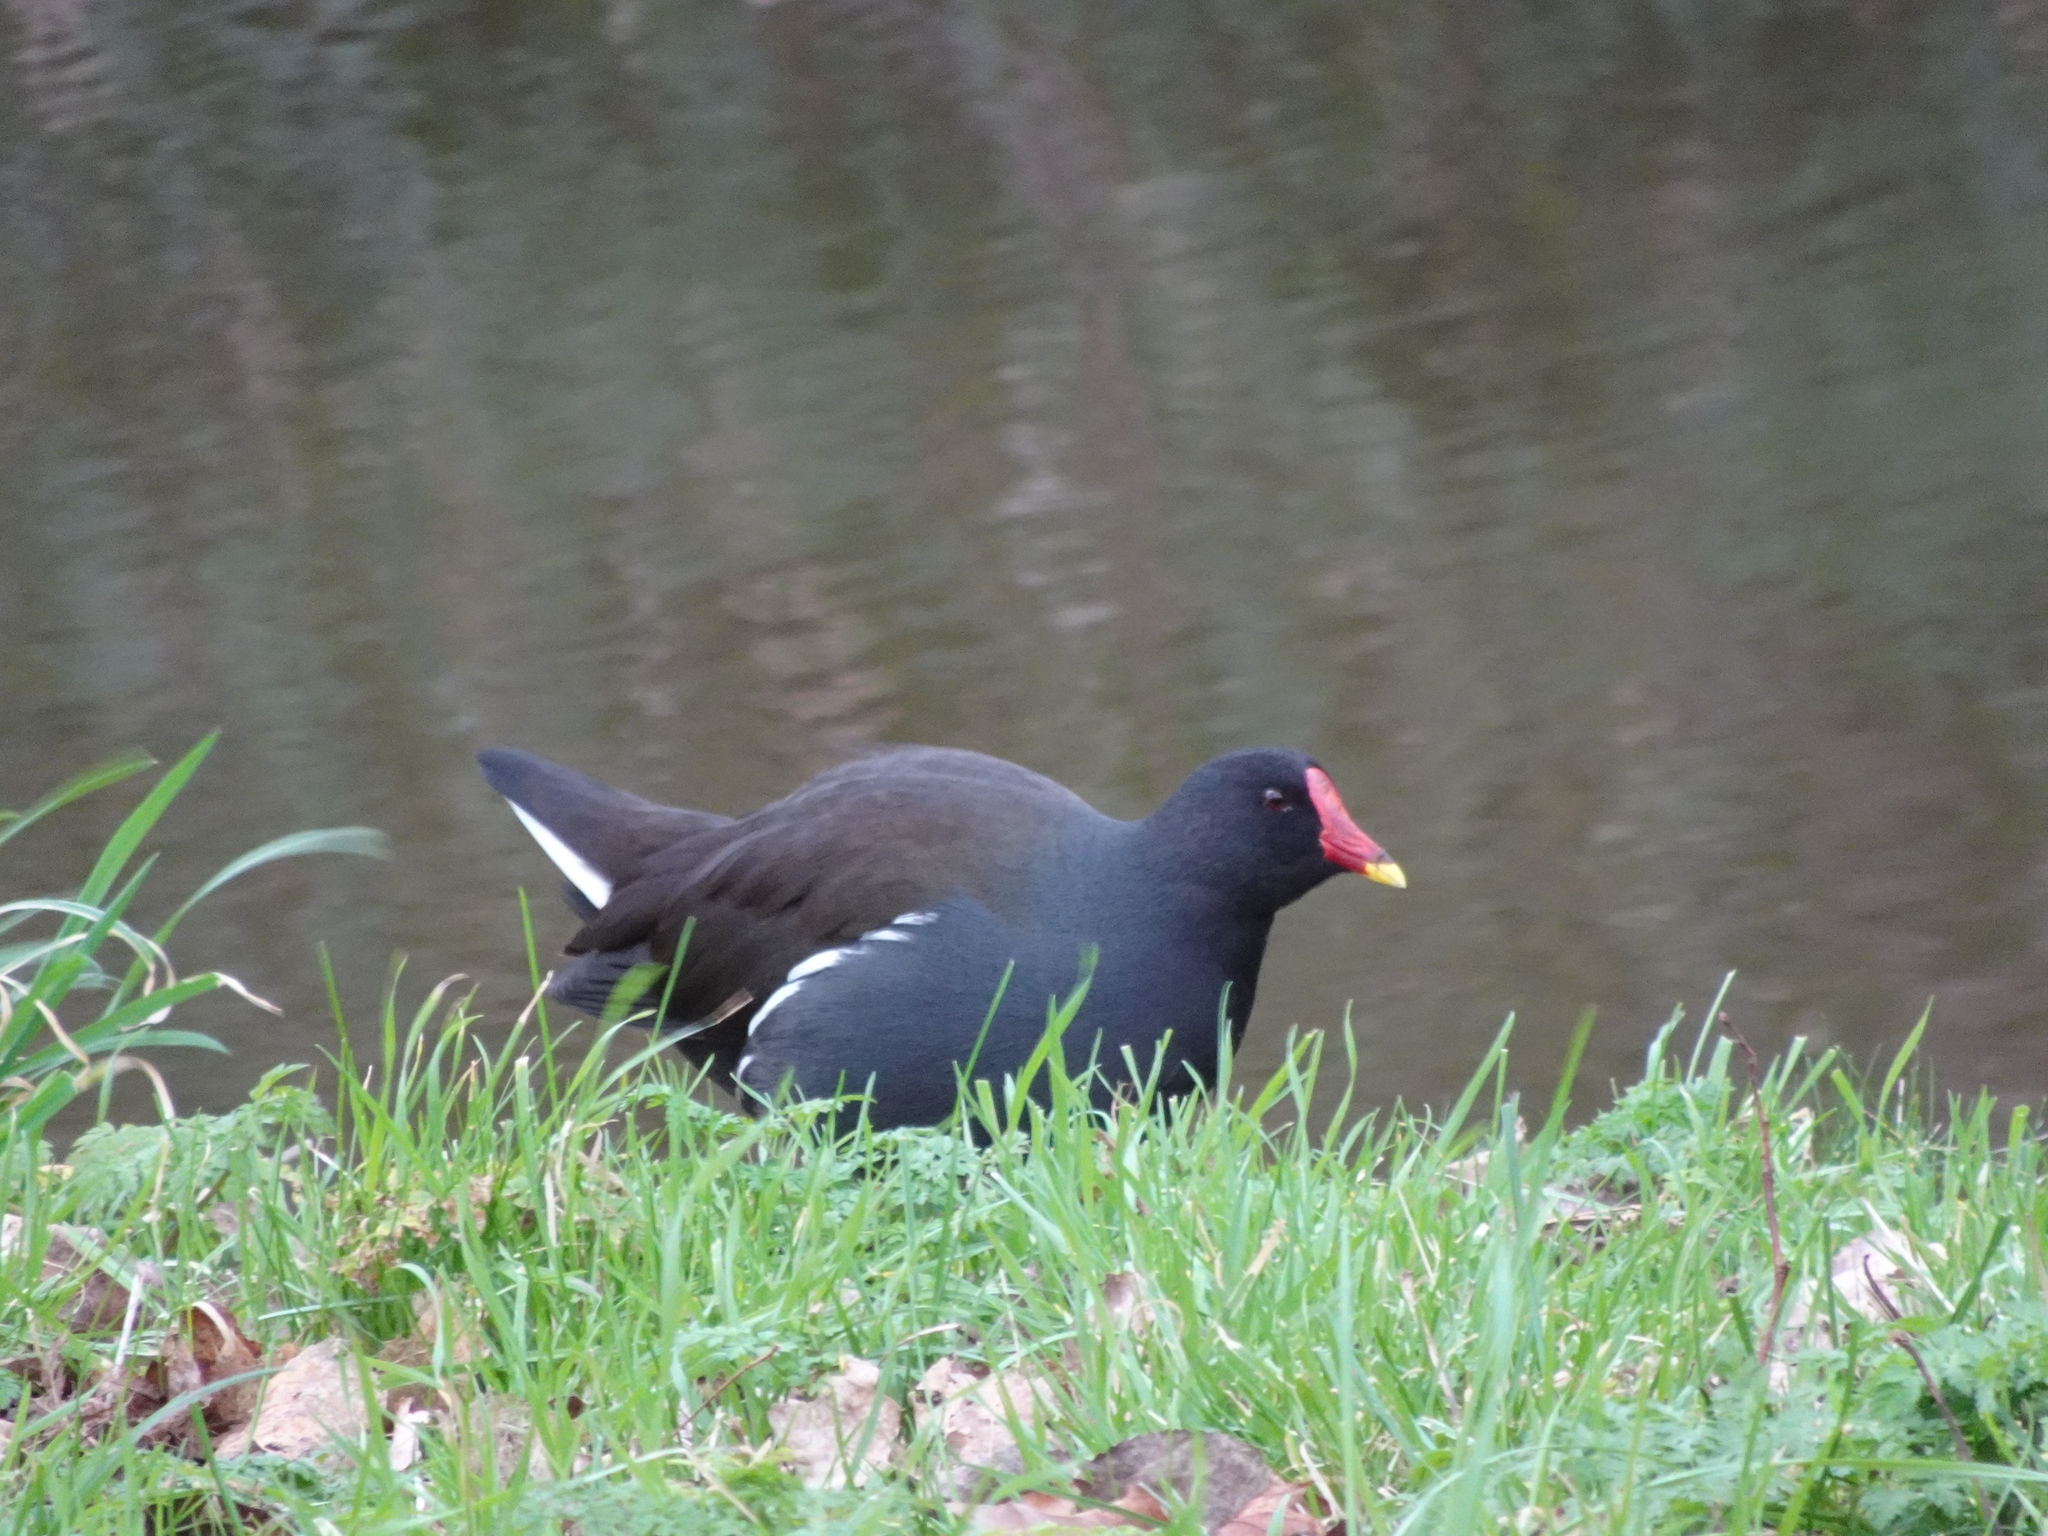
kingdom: Animalia
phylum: Chordata
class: Aves
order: Gruiformes
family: Rallidae
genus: Gallinula
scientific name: Gallinula chloropus
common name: Common moorhen
